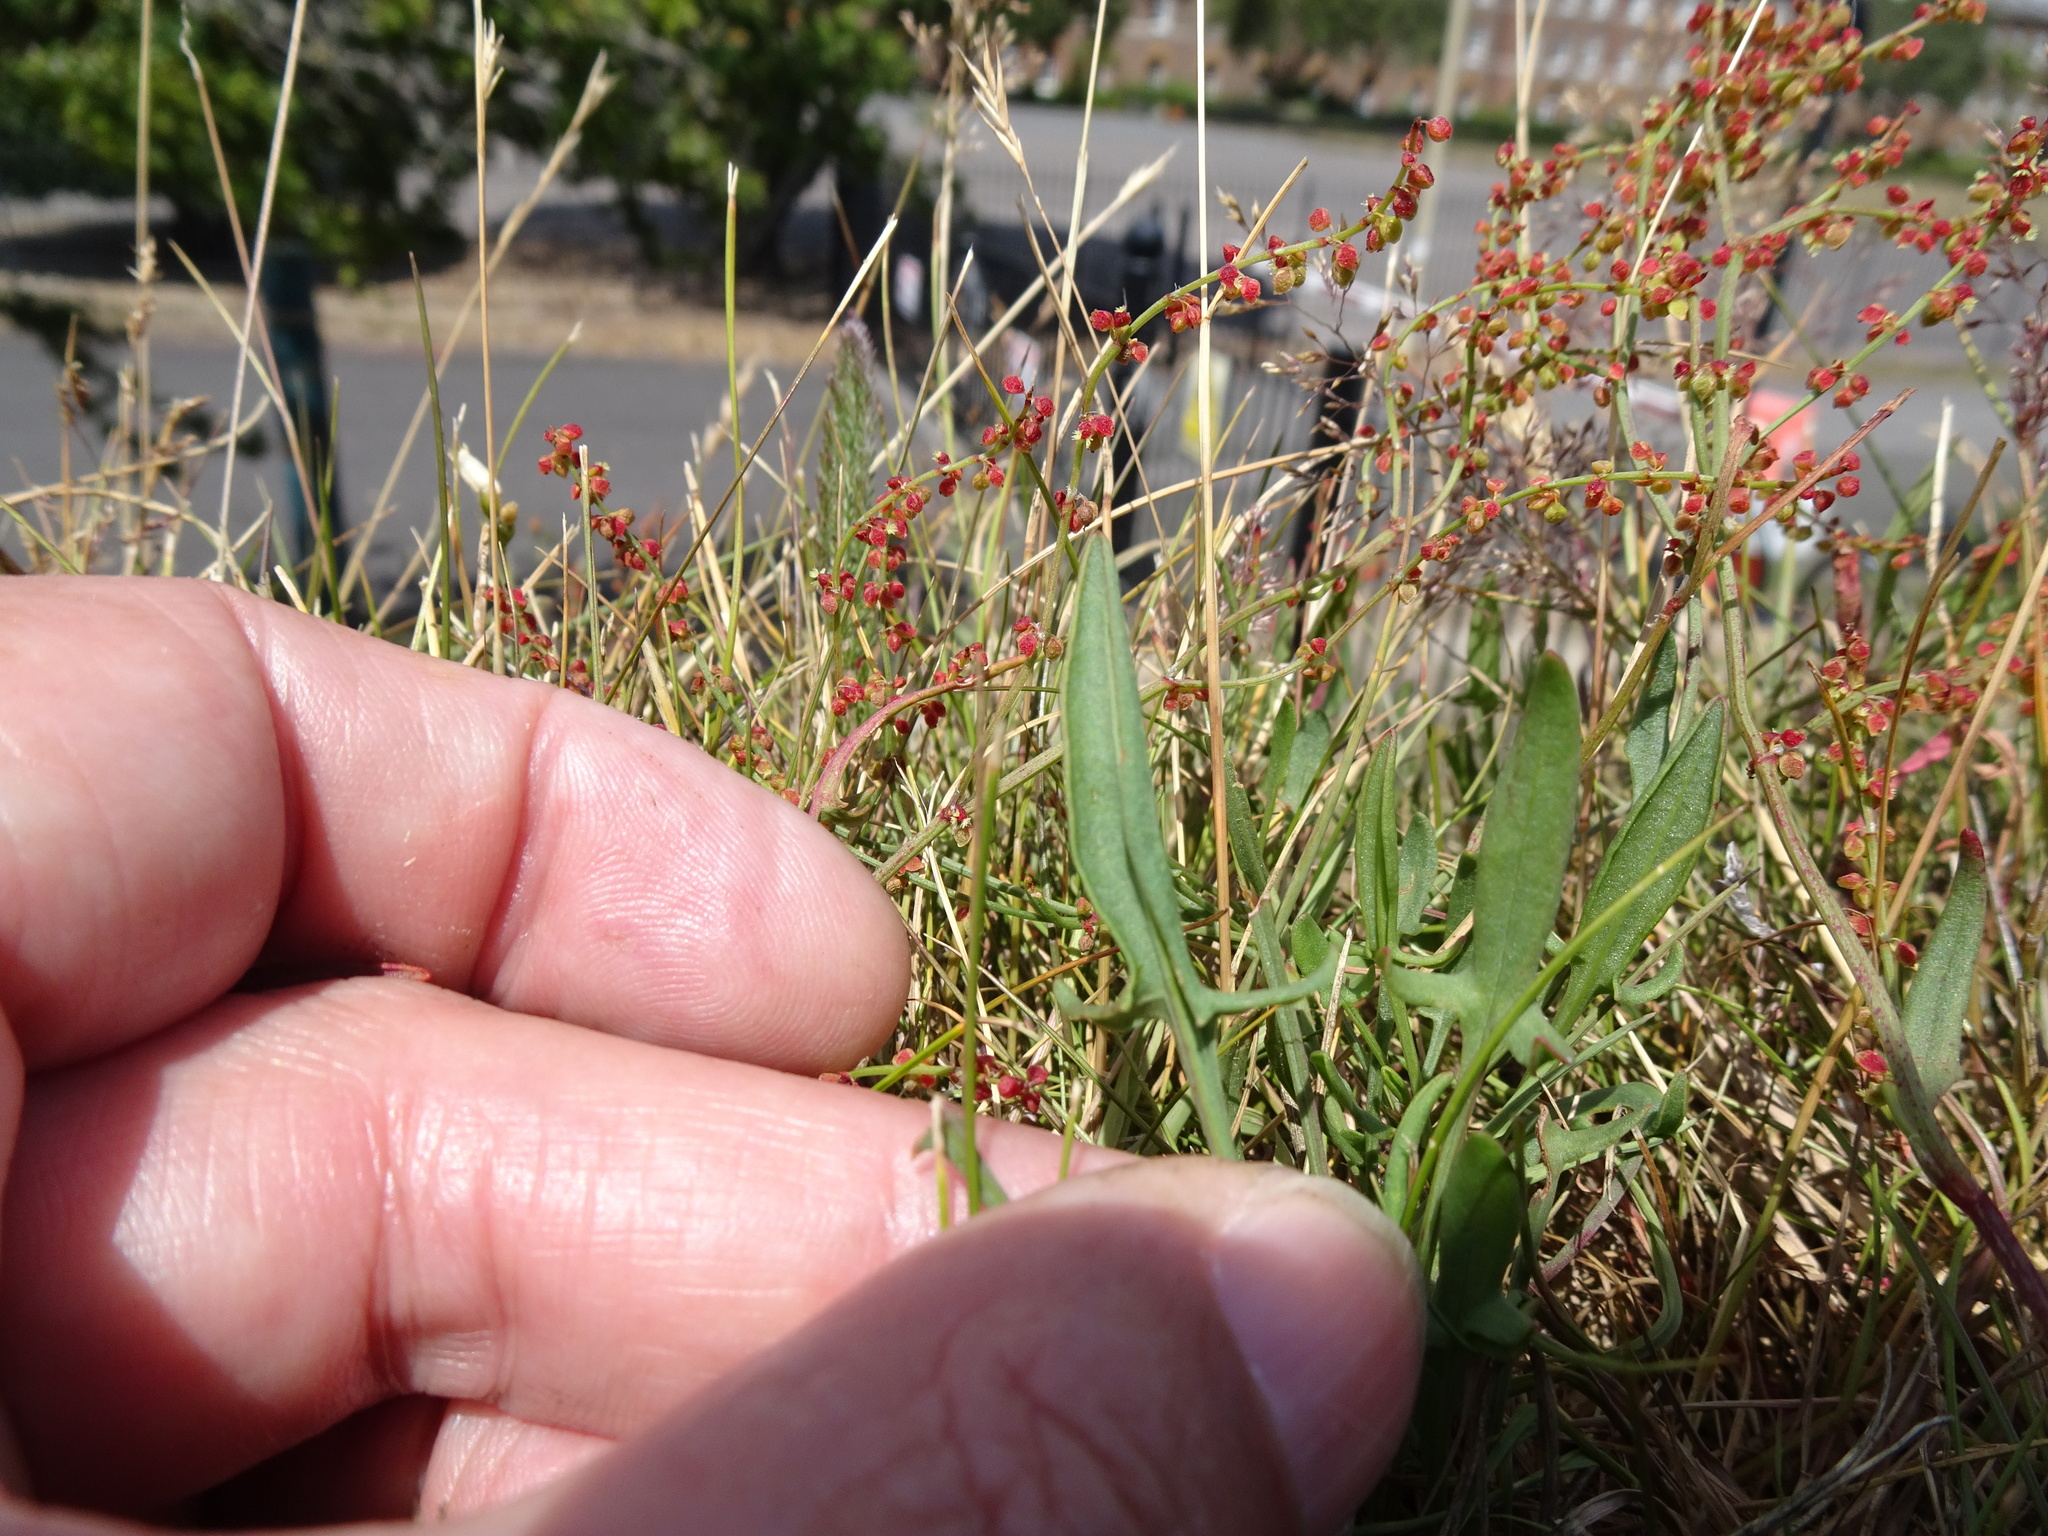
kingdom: Plantae
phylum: Tracheophyta
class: Magnoliopsida
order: Caryophyllales
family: Polygonaceae
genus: Rumex
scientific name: Rumex acetosella
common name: Common sheep sorrel
